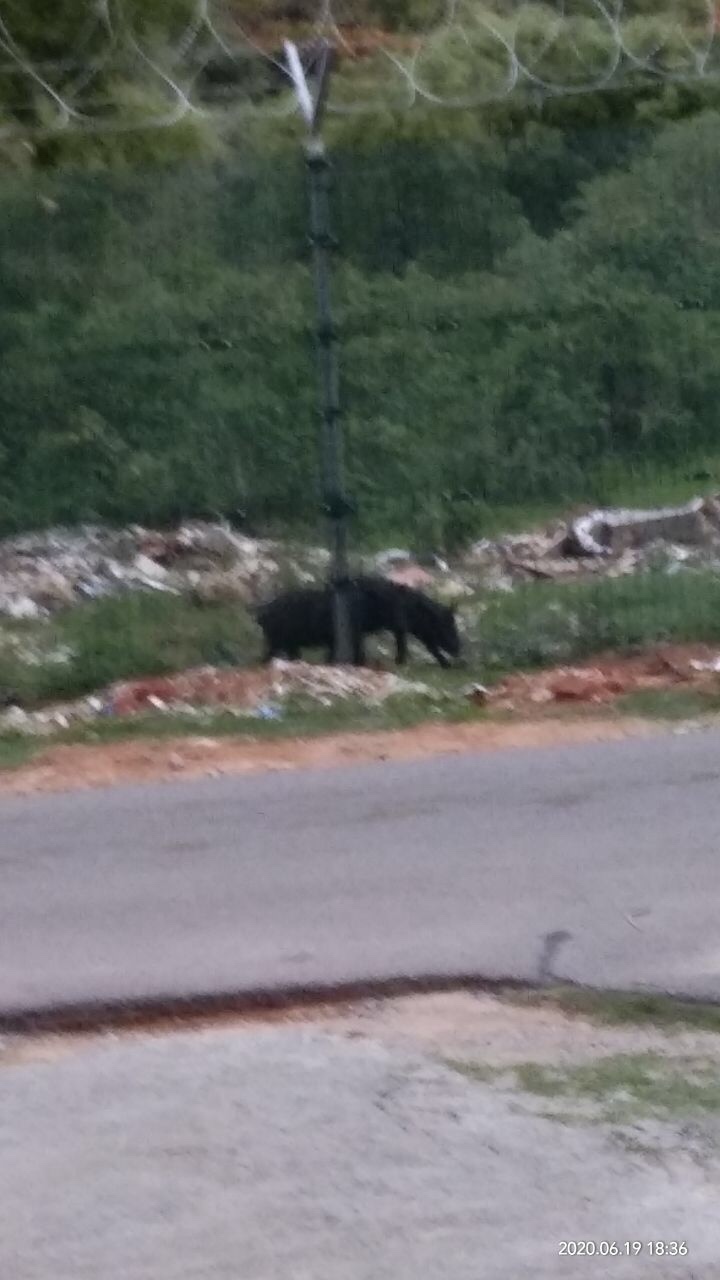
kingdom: Animalia
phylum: Chordata
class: Mammalia
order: Artiodactyla
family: Suidae
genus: Sus
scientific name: Sus scrofa
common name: Wild boar
